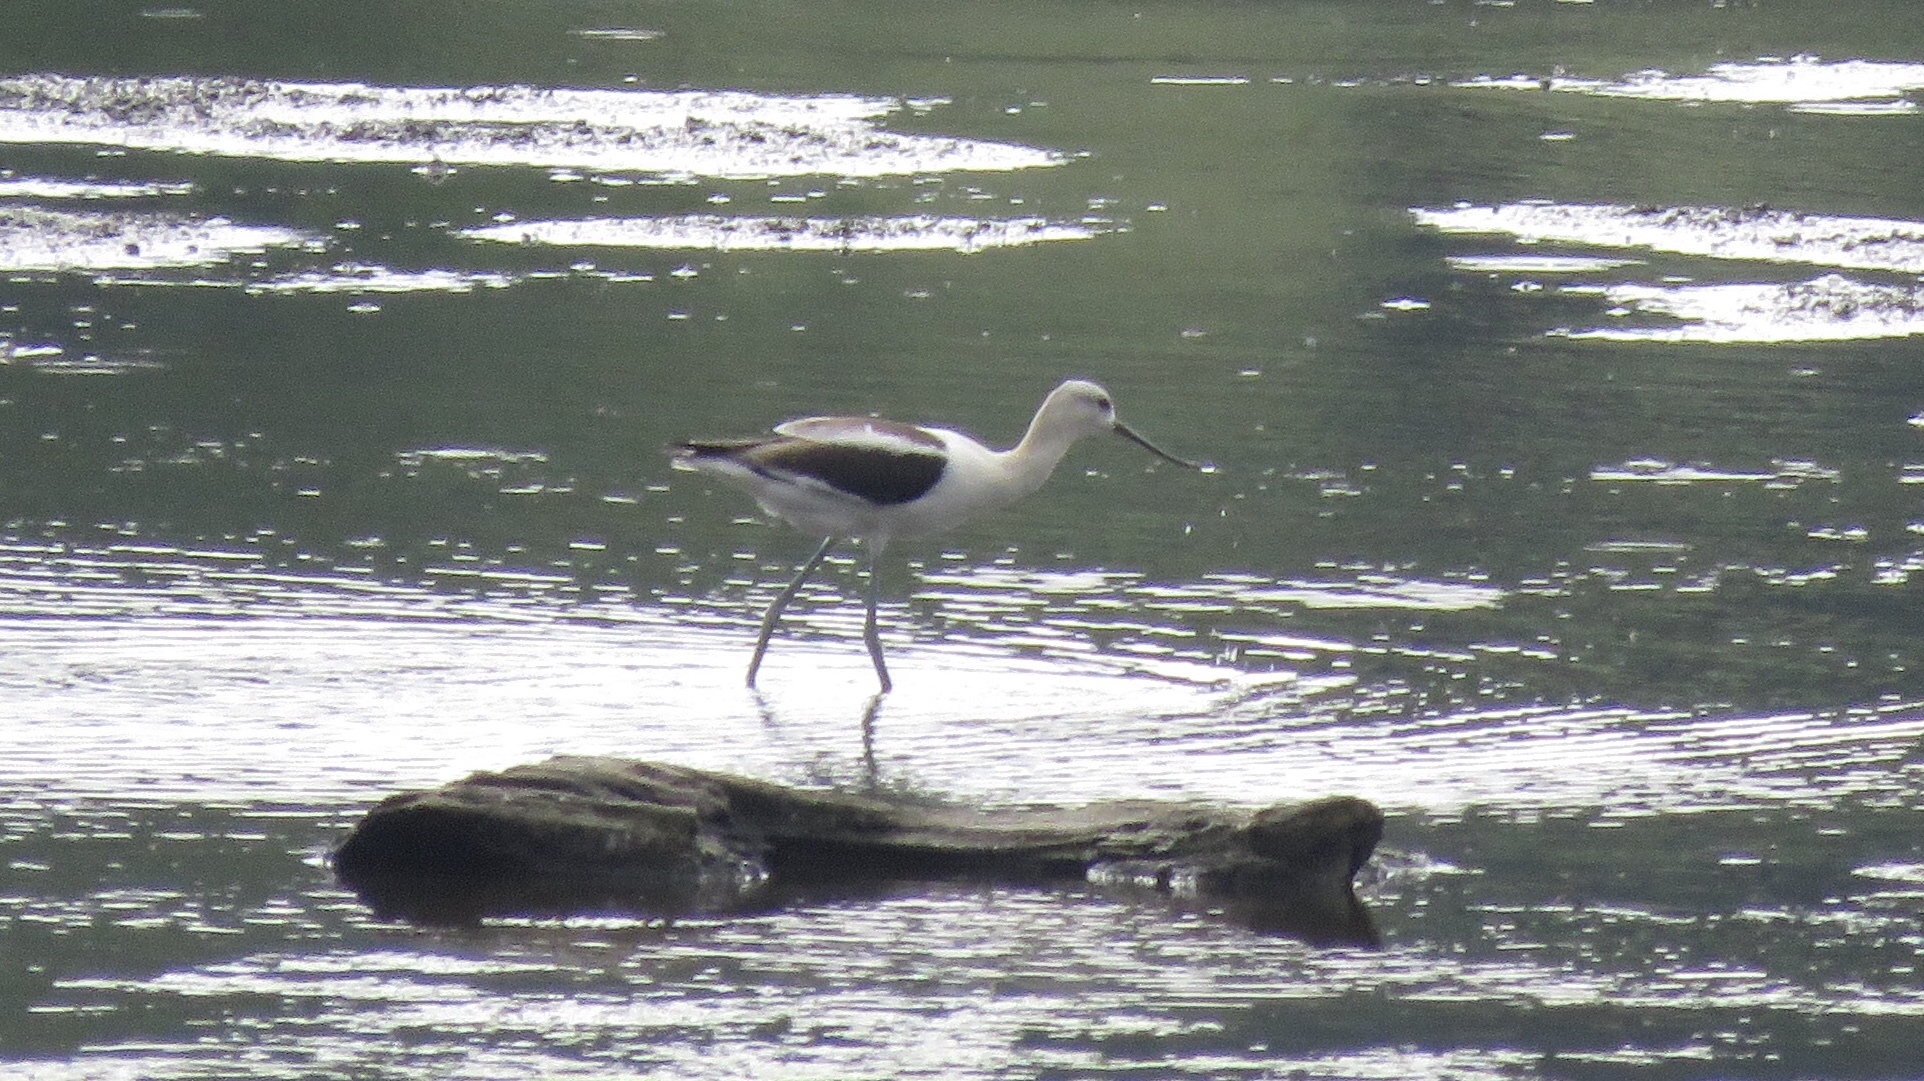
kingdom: Animalia
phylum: Chordata
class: Aves
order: Charadriiformes
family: Recurvirostridae
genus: Recurvirostra
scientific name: Recurvirostra americana
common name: American avocet
